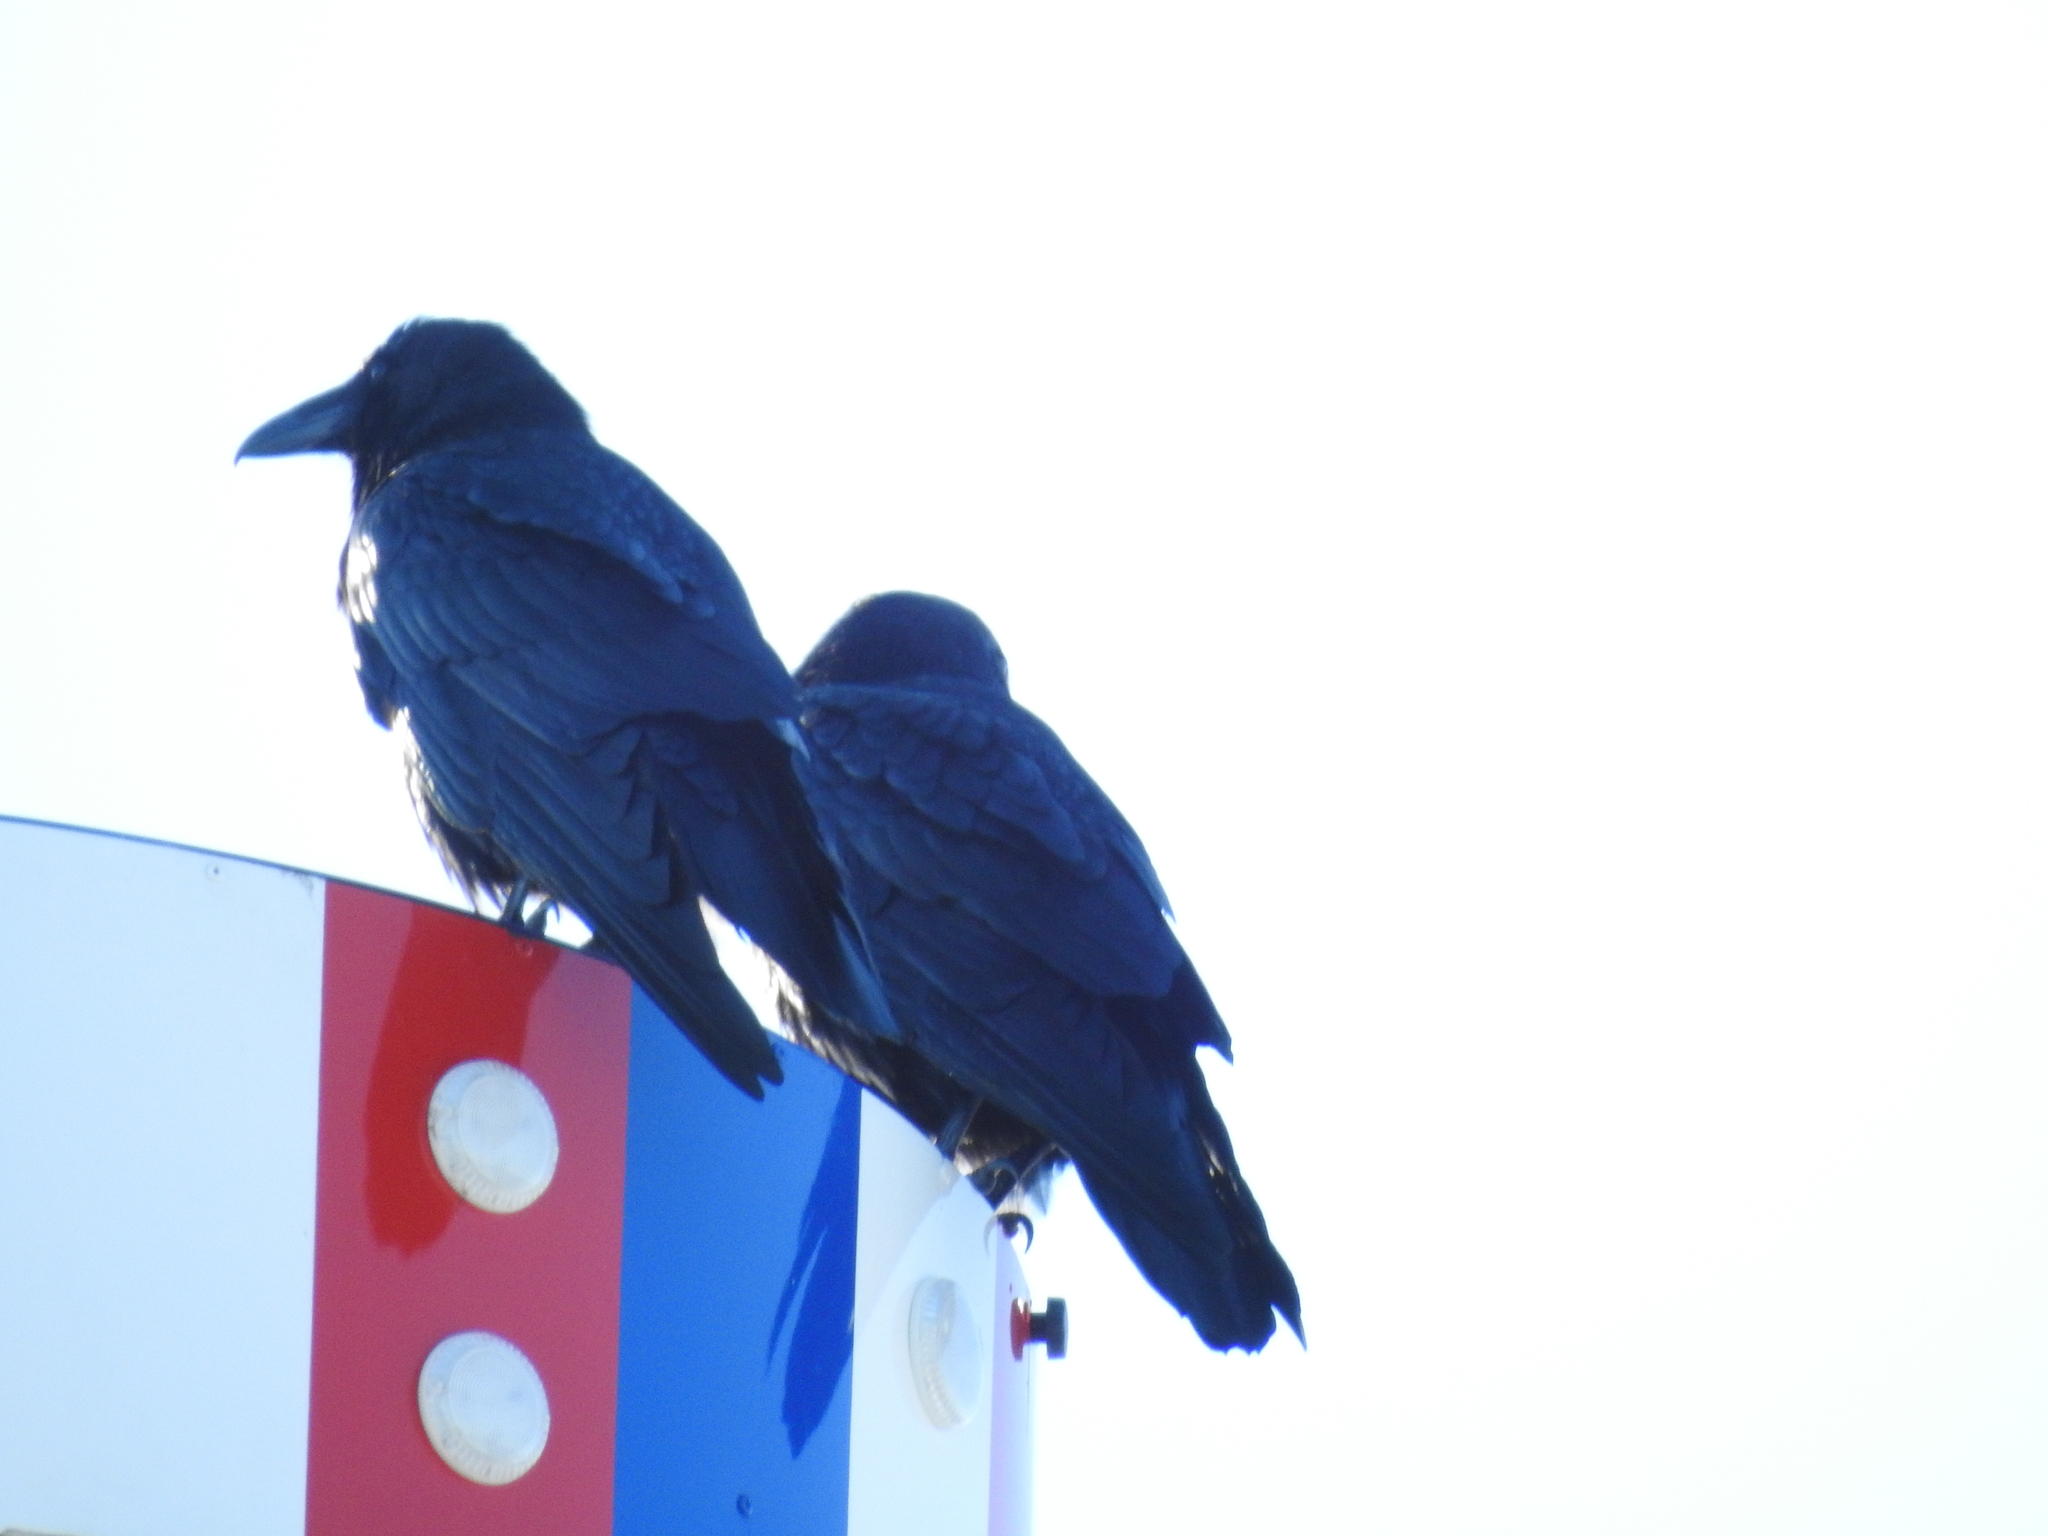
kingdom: Animalia
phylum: Chordata
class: Aves
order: Passeriformes
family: Corvidae
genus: Corvus
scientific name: Corvus corax
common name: Common raven
